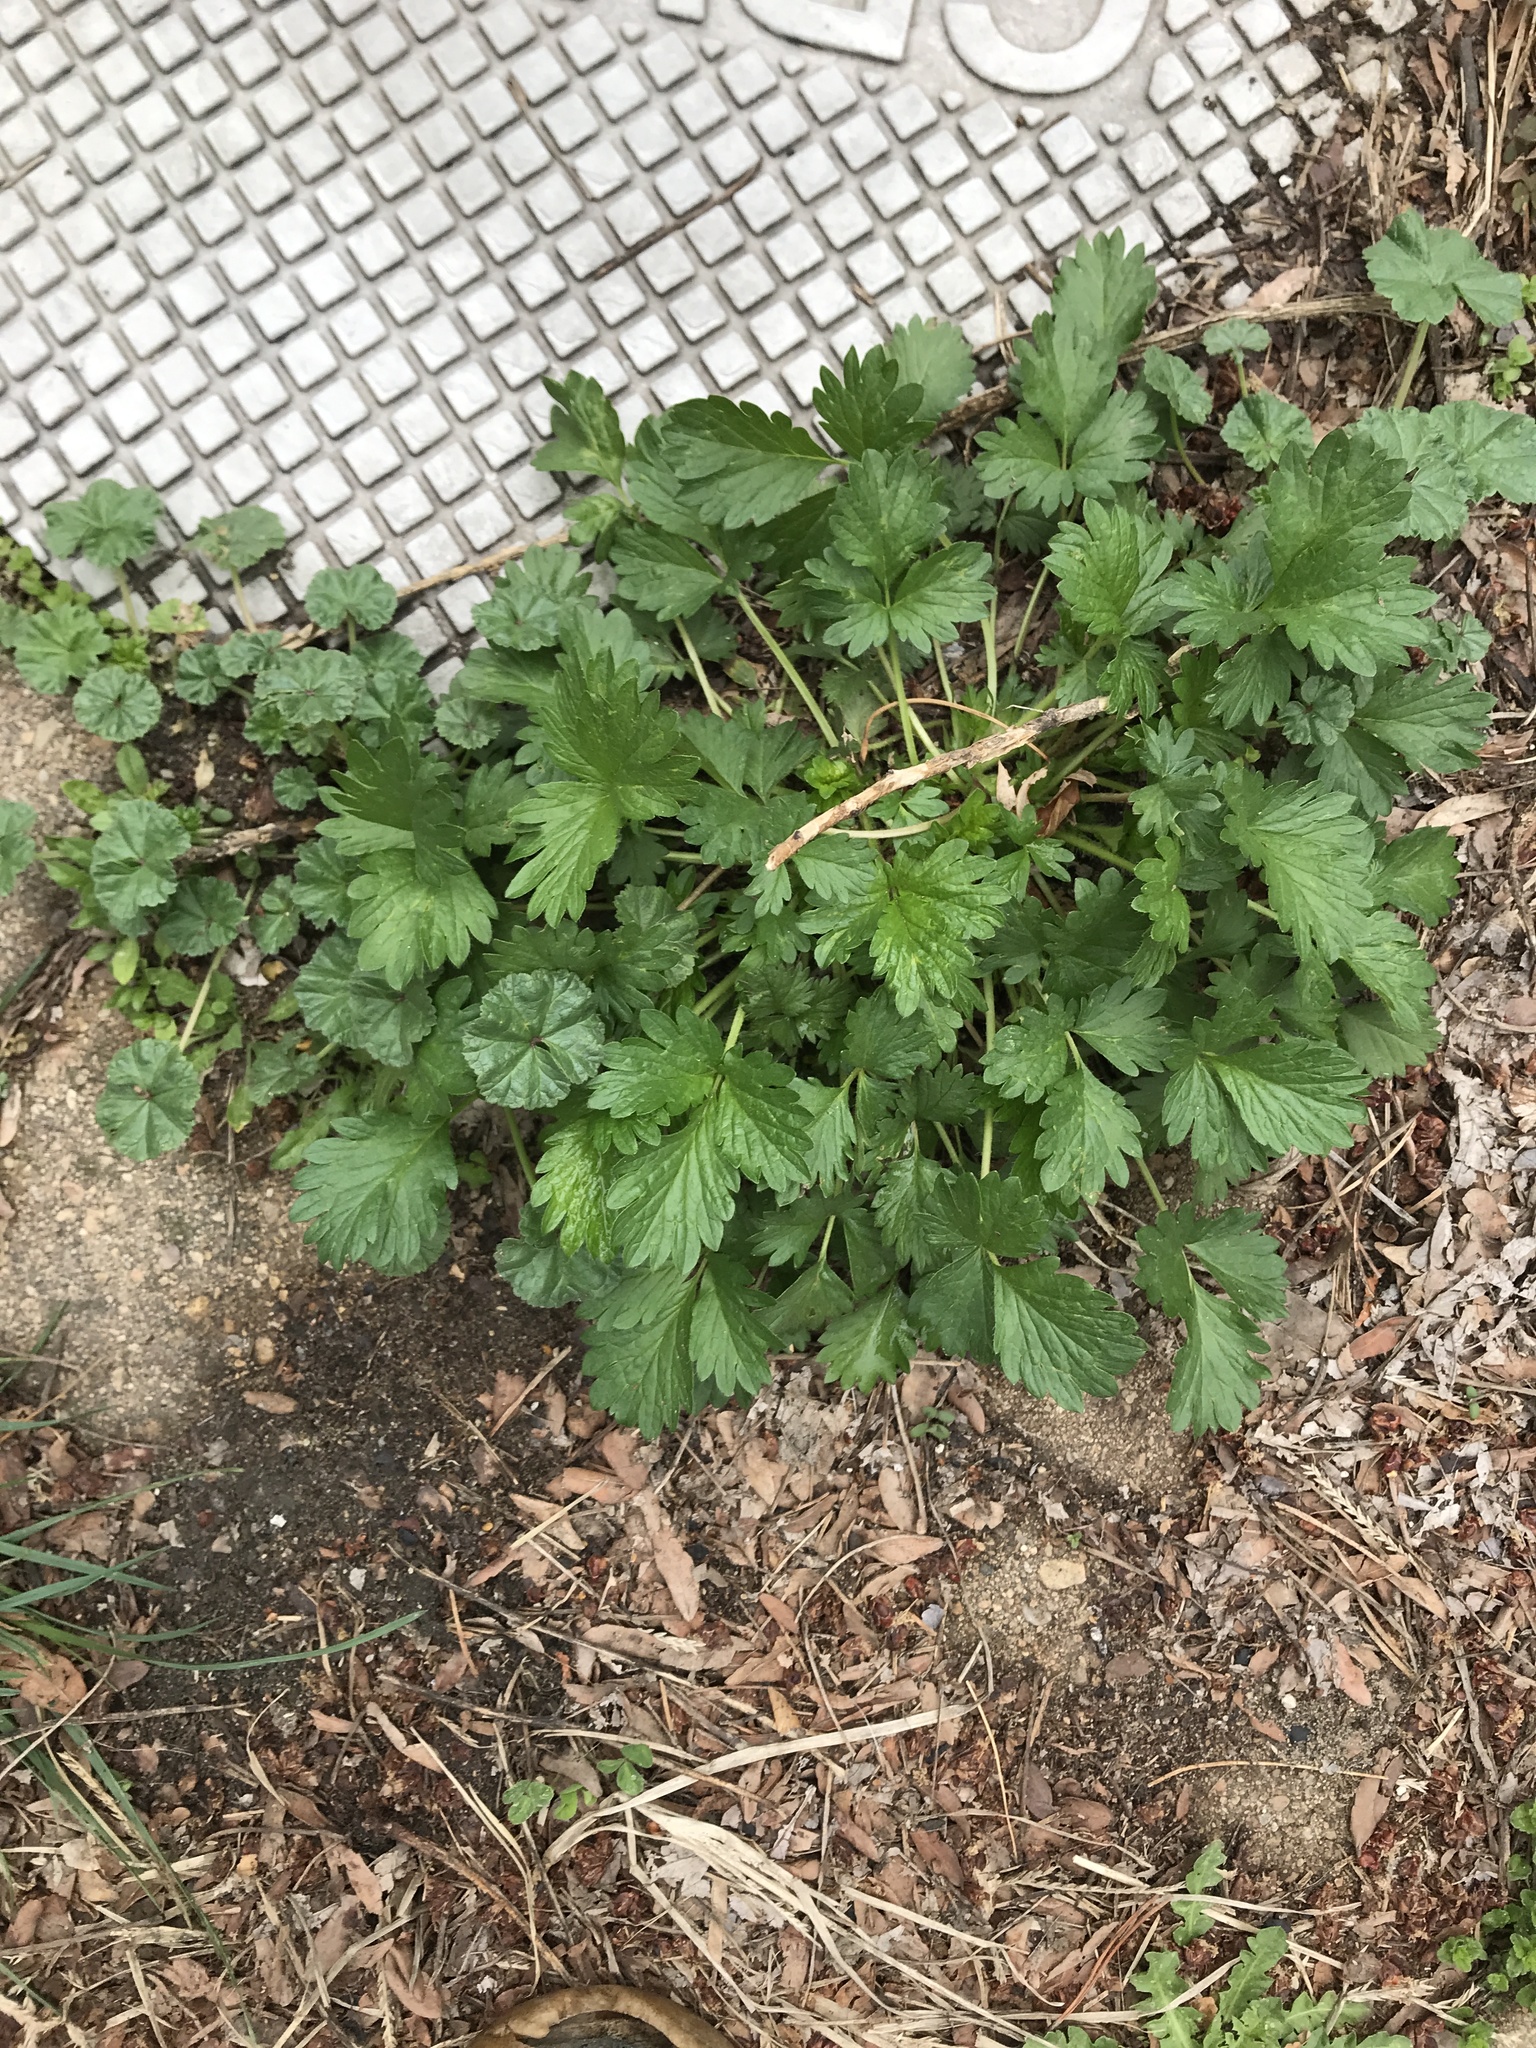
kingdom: Plantae
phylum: Tracheophyta
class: Magnoliopsida
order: Rosales
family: Rosaceae
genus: Potentilla
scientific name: Potentilla norvegica
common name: Ternate-leaved cinquefoil
